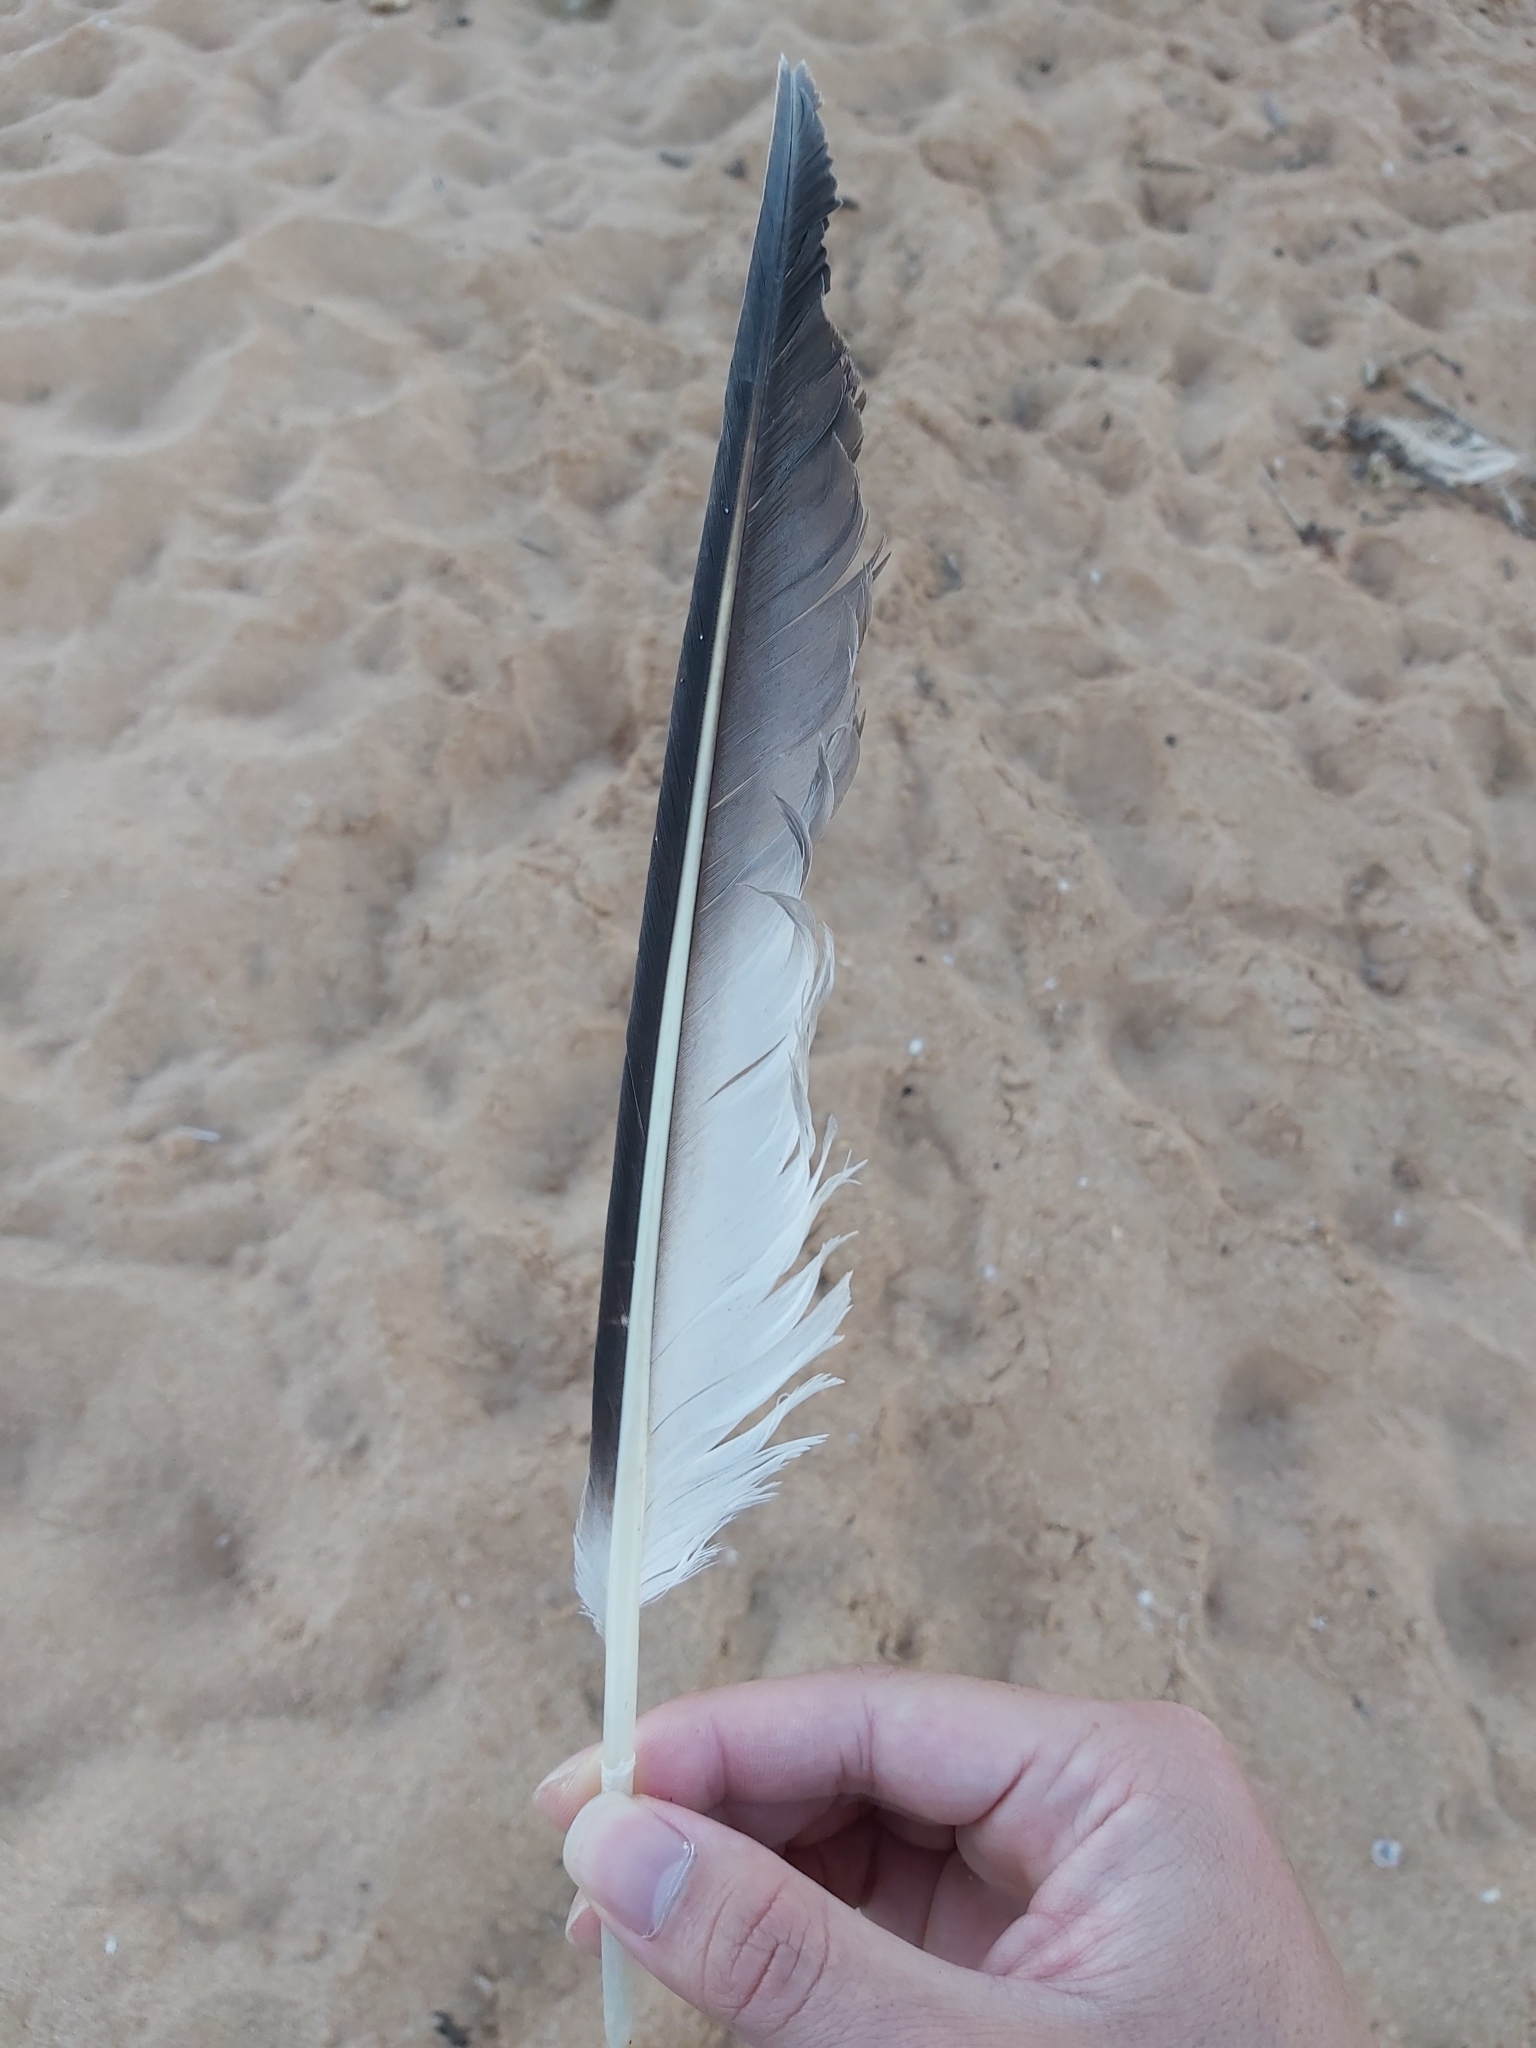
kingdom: Animalia
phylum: Chordata
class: Aves
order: Suliformes
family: Sulidae
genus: Morus
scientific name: Morus serrator
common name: Australasian gannet
